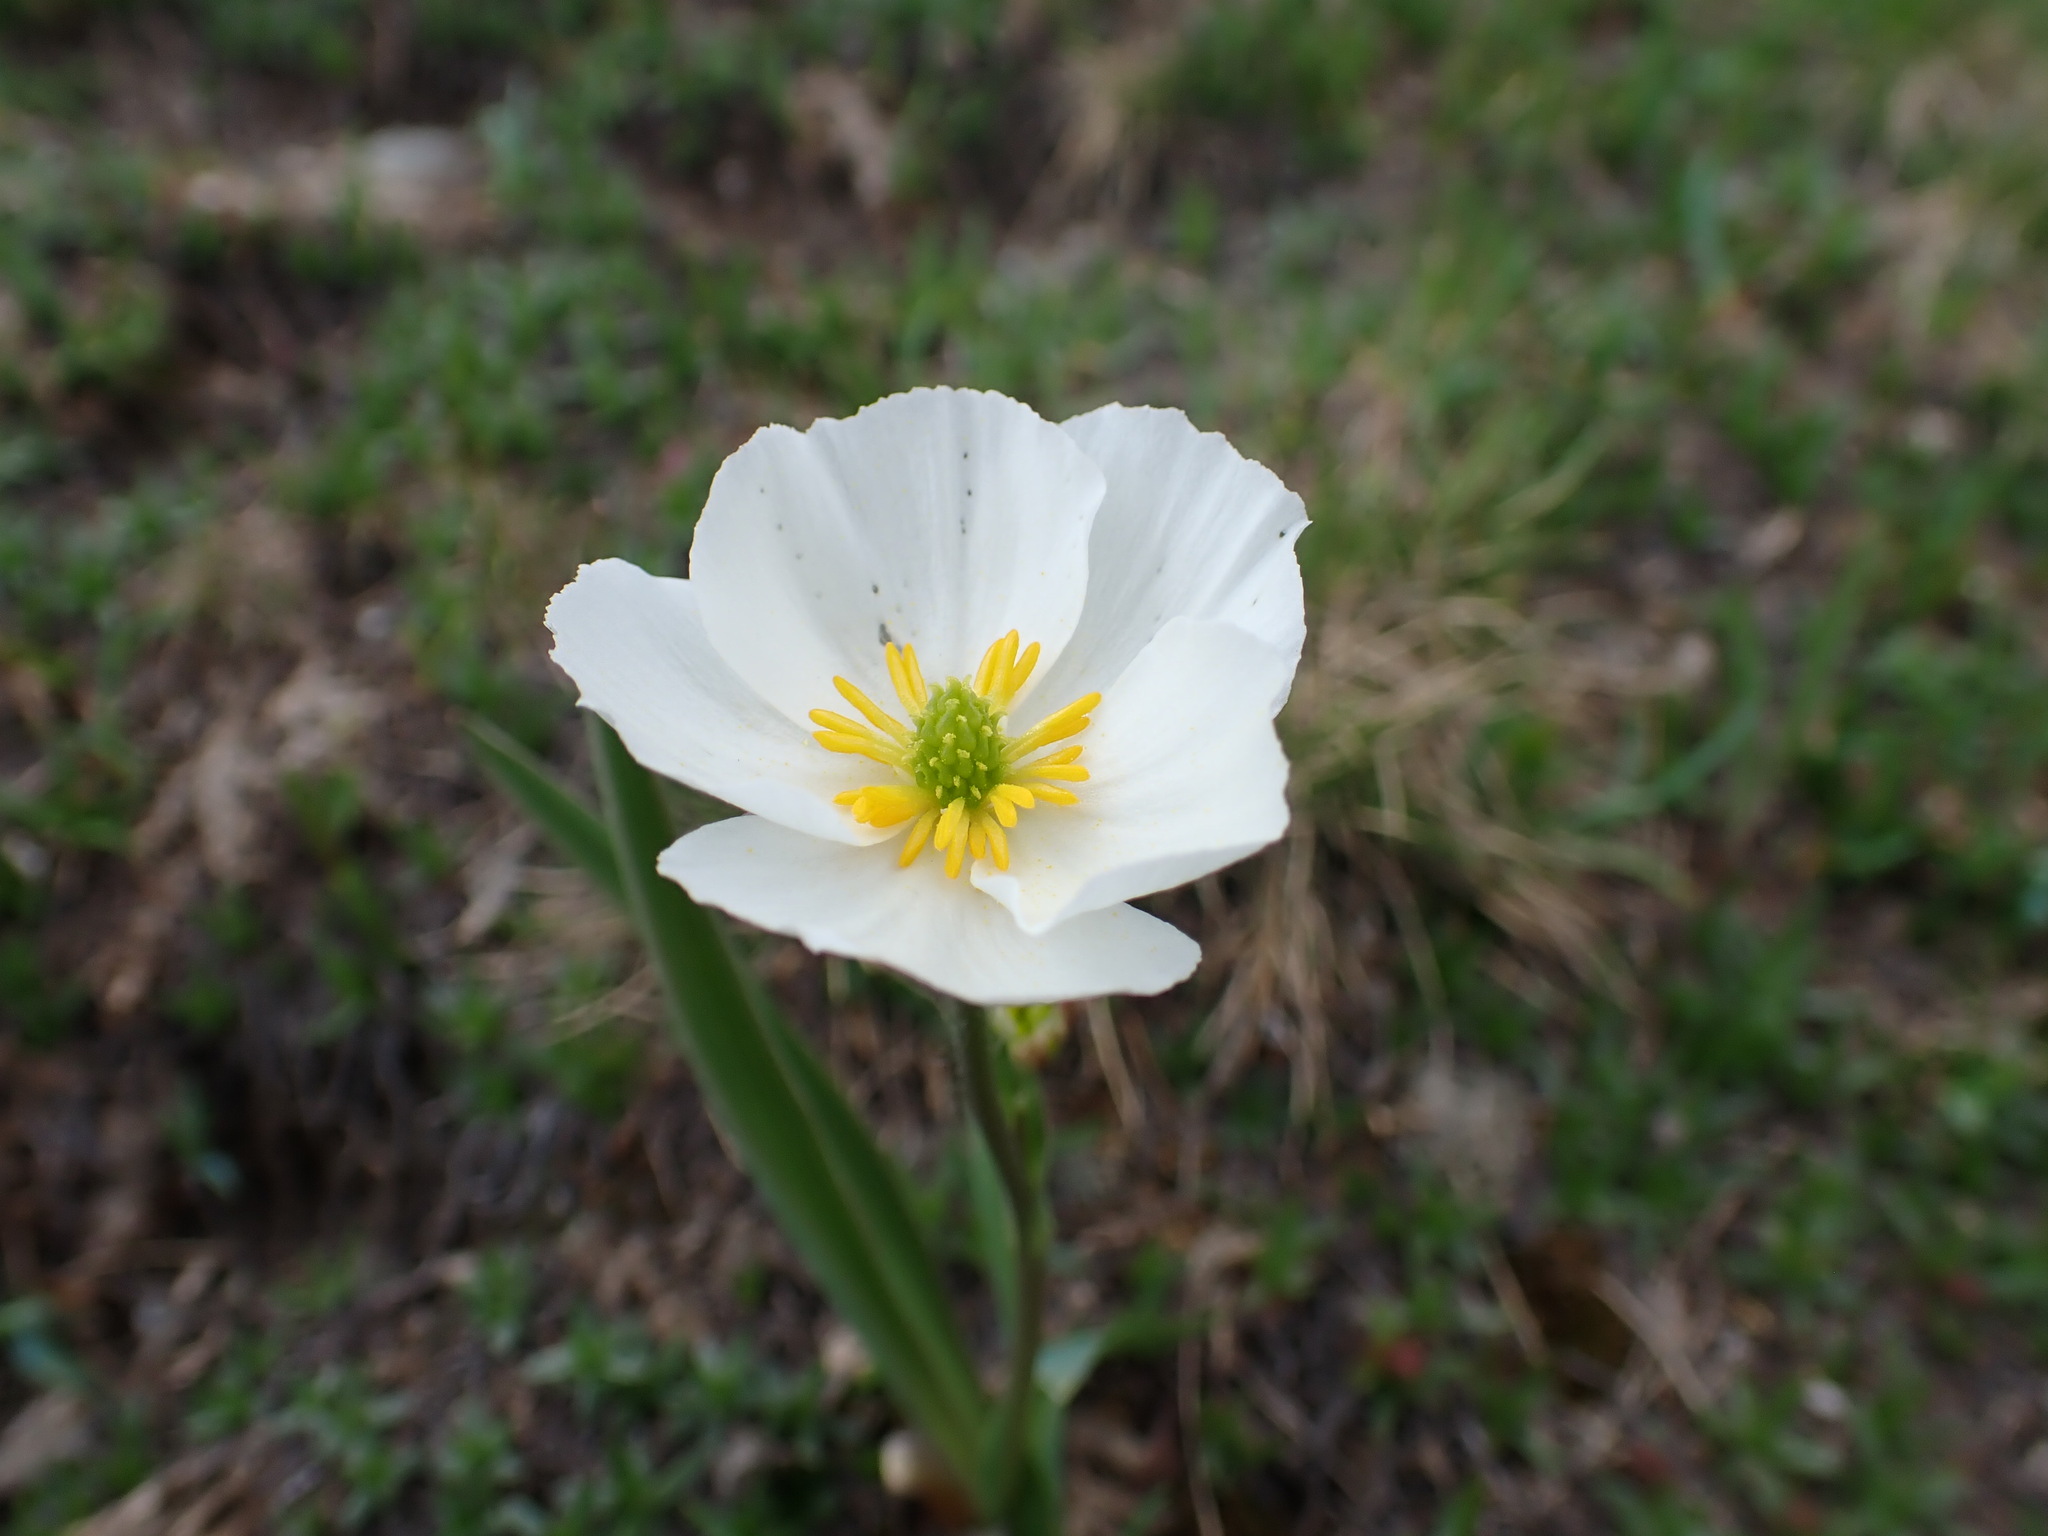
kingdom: Plantae
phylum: Tracheophyta
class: Magnoliopsida
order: Ranunculales
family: Ranunculaceae
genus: Ranunculus
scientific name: Ranunculus kuepferi
